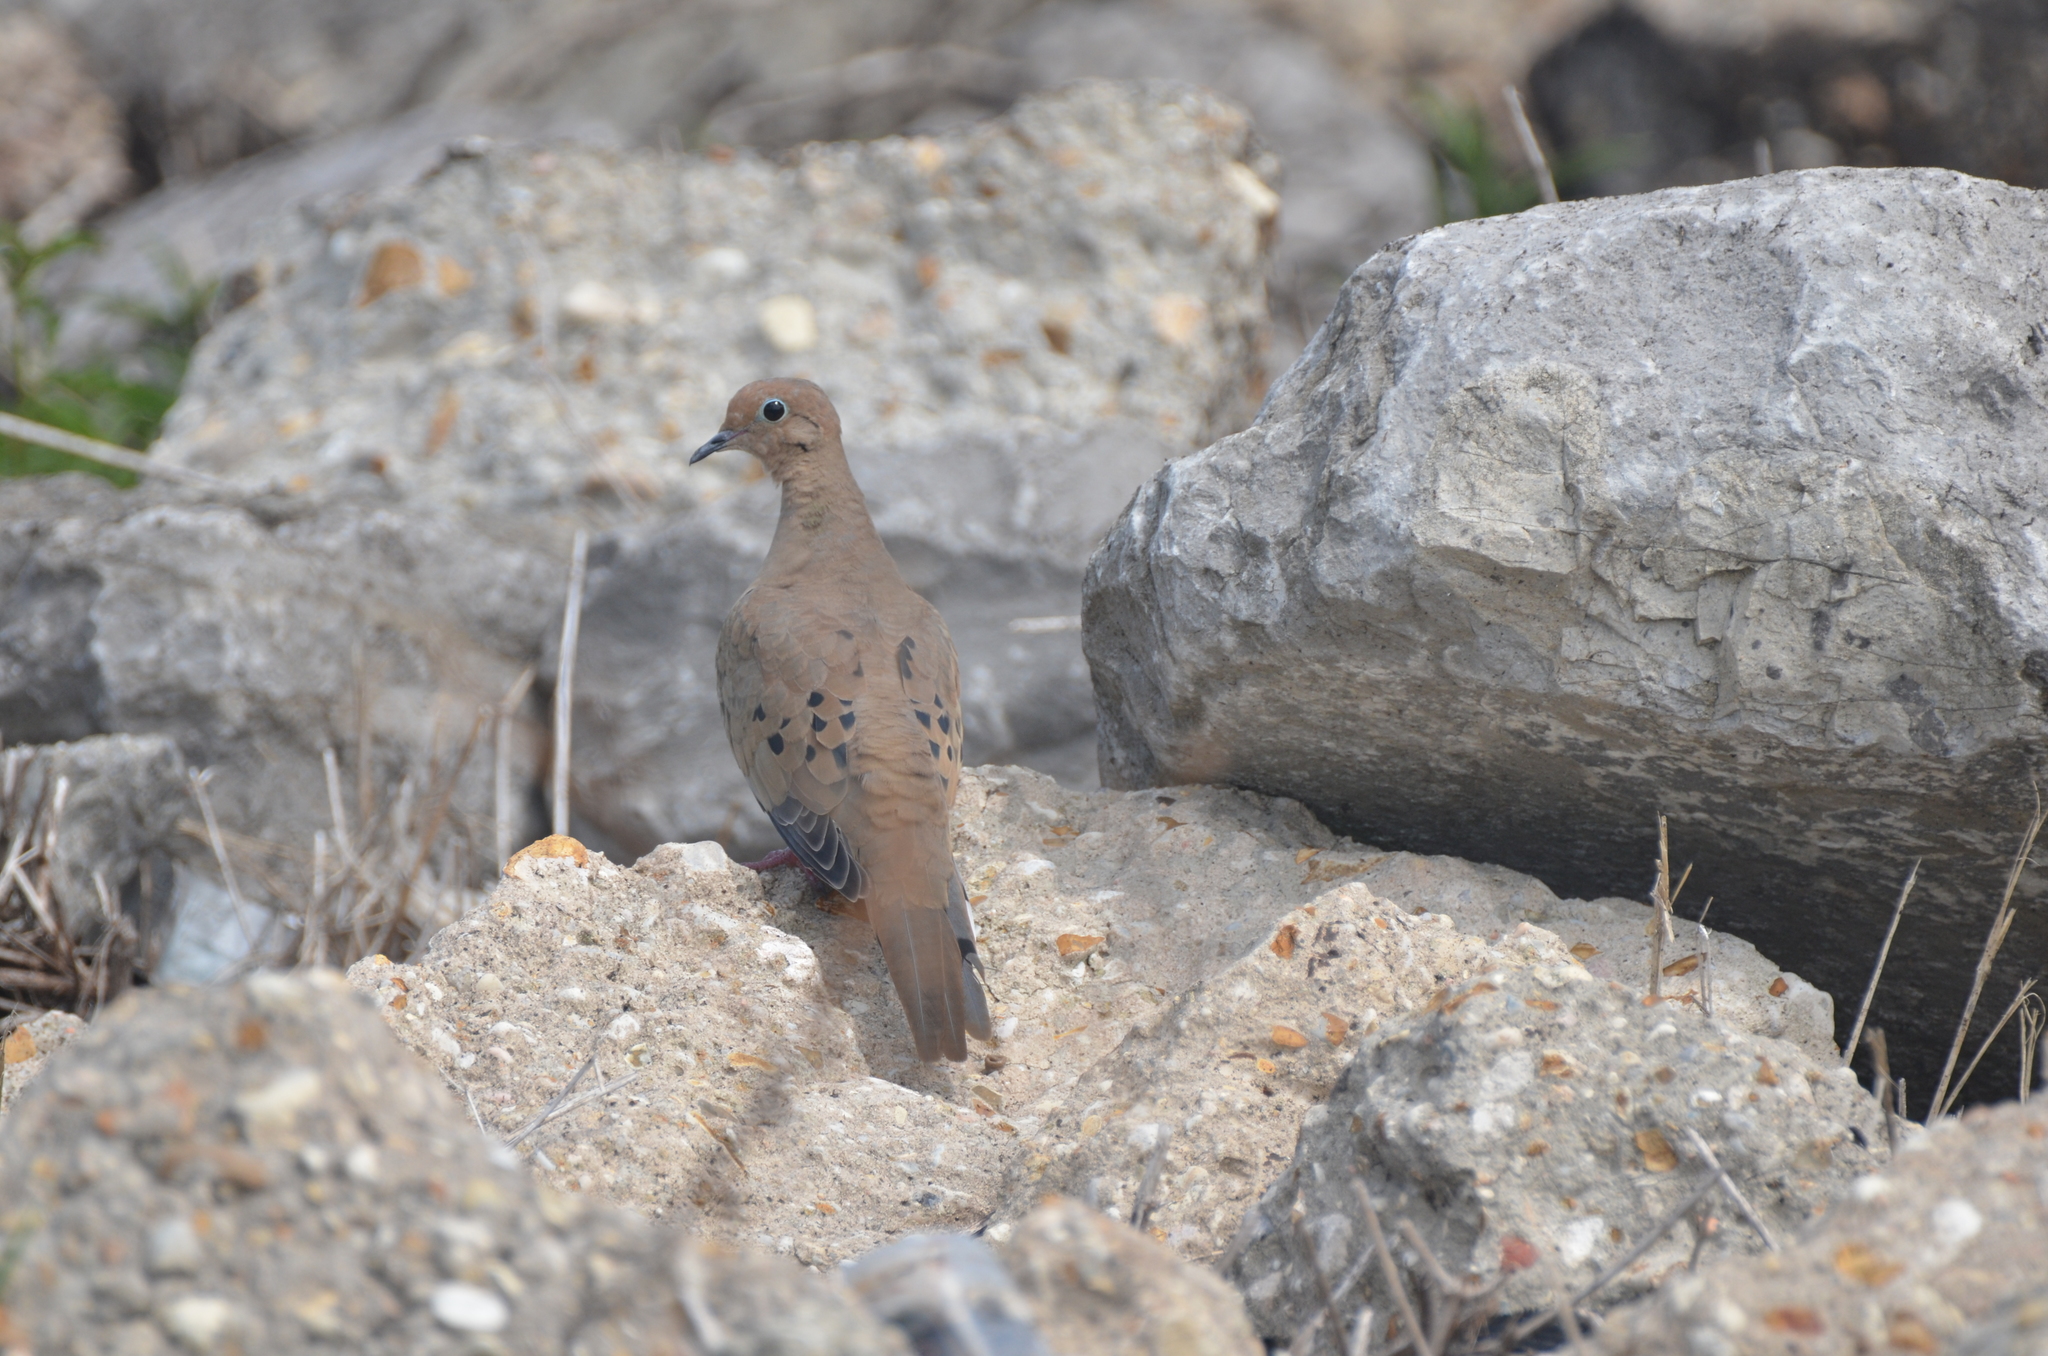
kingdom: Animalia
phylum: Chordata
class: Aves
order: Columbiformes
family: Columbidae
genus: Zenaida
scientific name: Zenaida macroura
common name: Mourning dove
